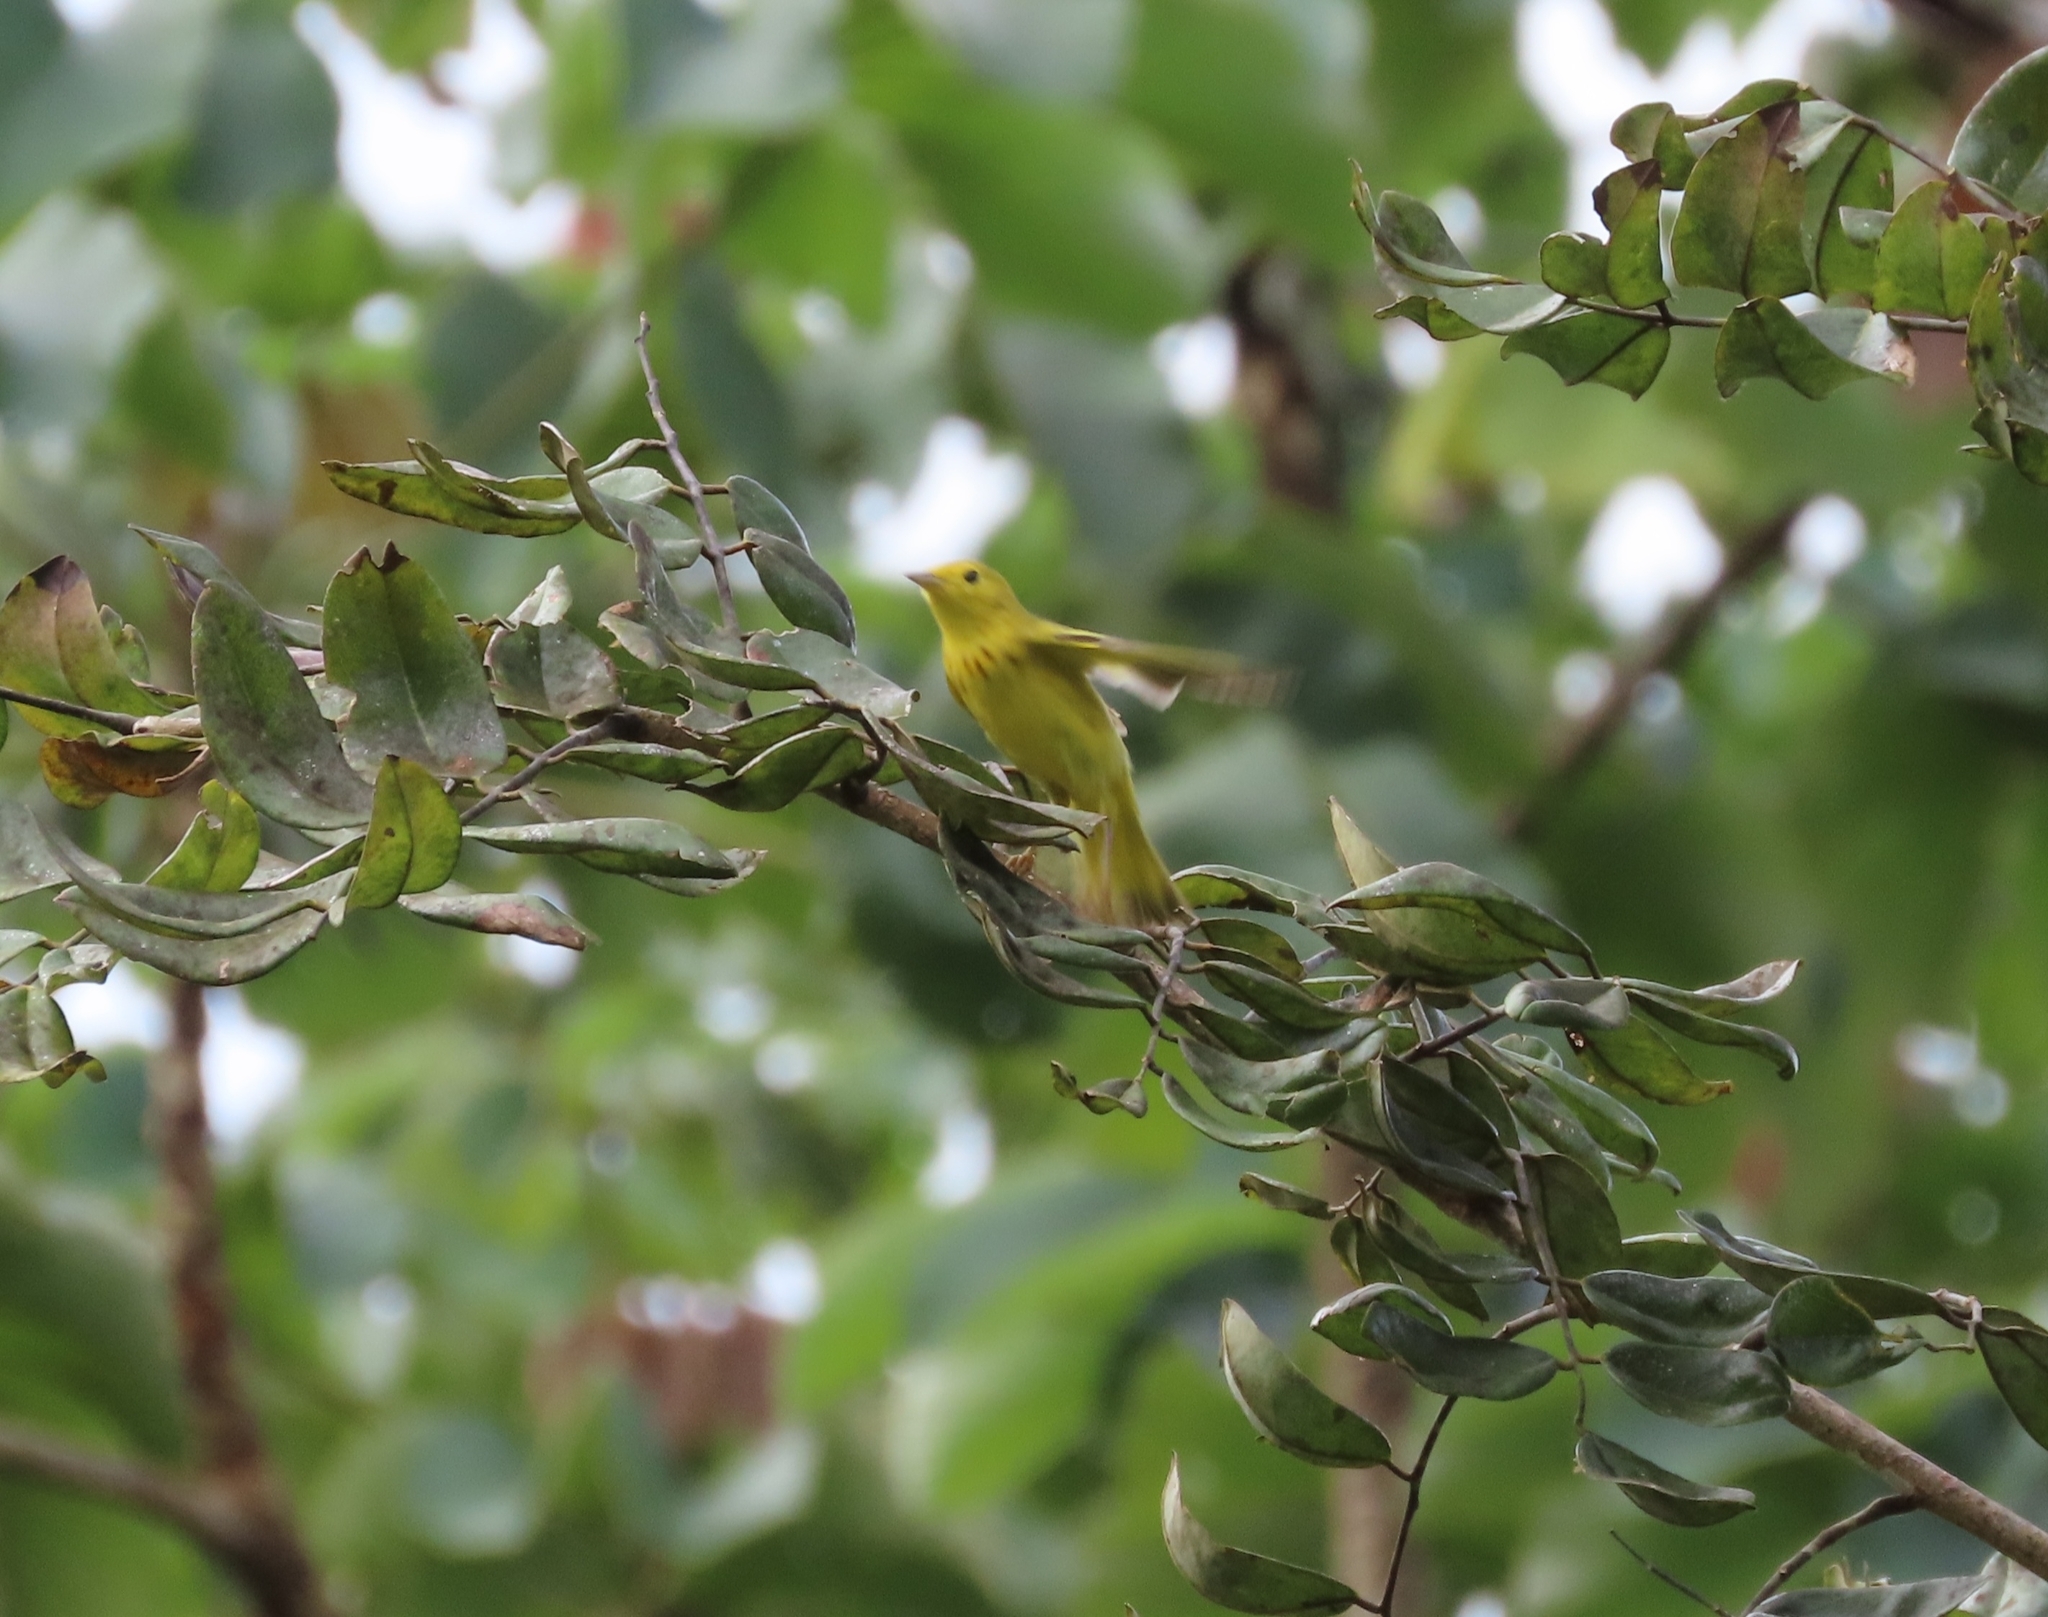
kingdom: Animalia
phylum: Chordata
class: Aves
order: Passeriformes
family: Parulidae
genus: Setophaga
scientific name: Setophaga petechia
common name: Yellow warbler
